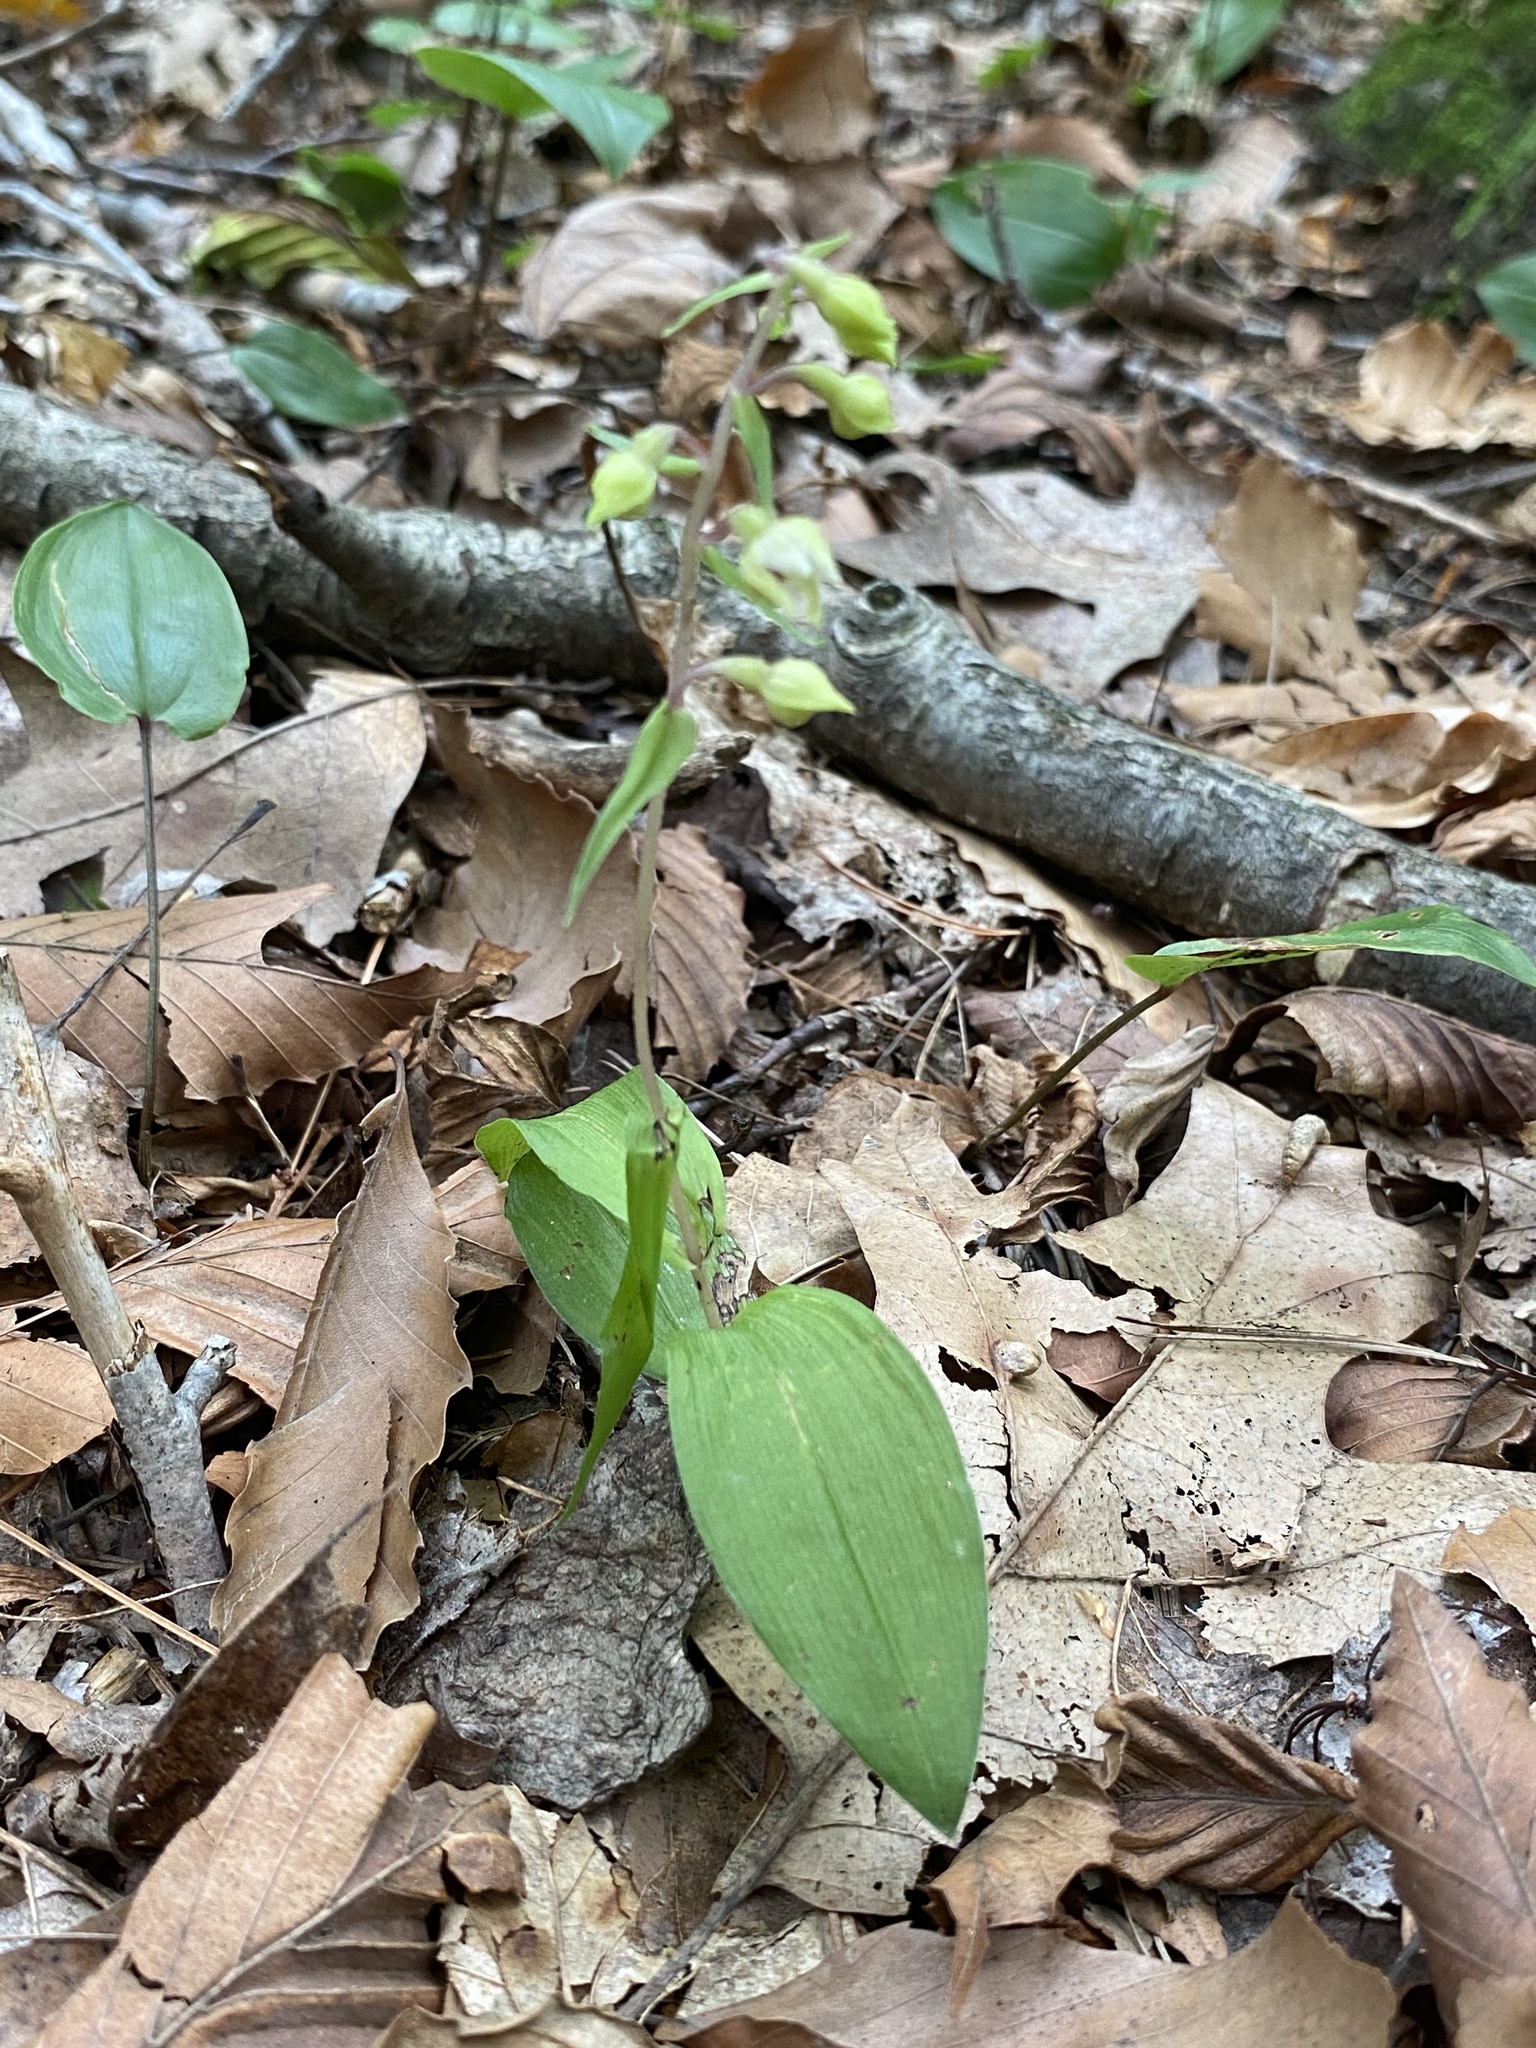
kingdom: Plantae
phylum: Tracheophyta
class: Liliopsida
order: Asparagales
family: Orchidaceae
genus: Epipactis
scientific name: Epipactis helleborine
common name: Broad-leaved helleborine
